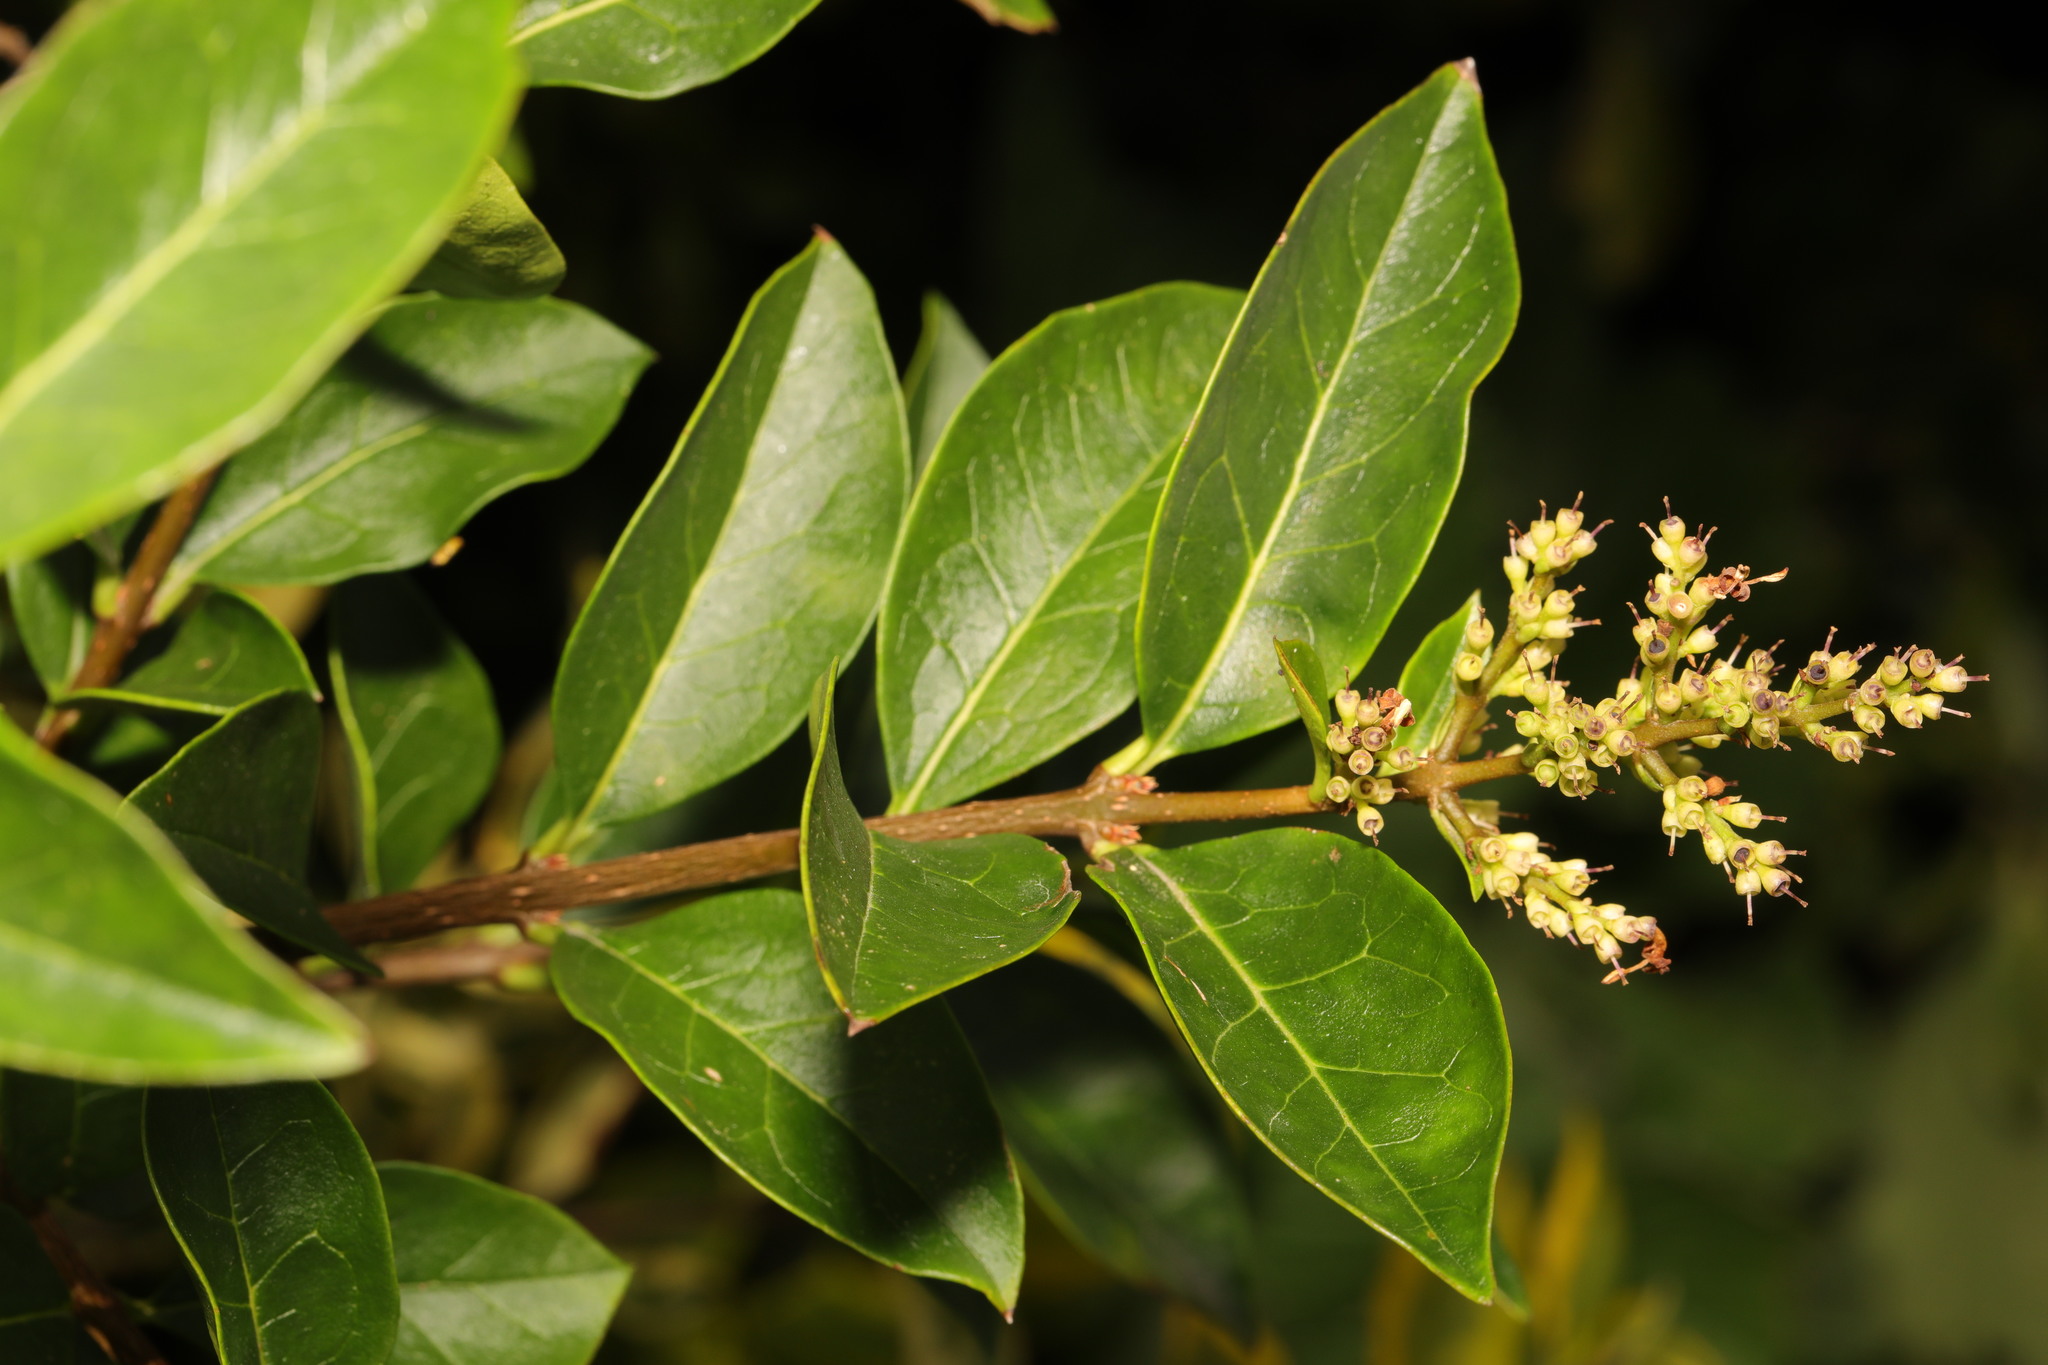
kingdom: Plantae
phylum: Tracheophyta
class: Magnoliopsida
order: Lamiales
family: Oleaceae
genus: Ligustrum
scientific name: Ligustrum ovalifolium
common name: California privet
